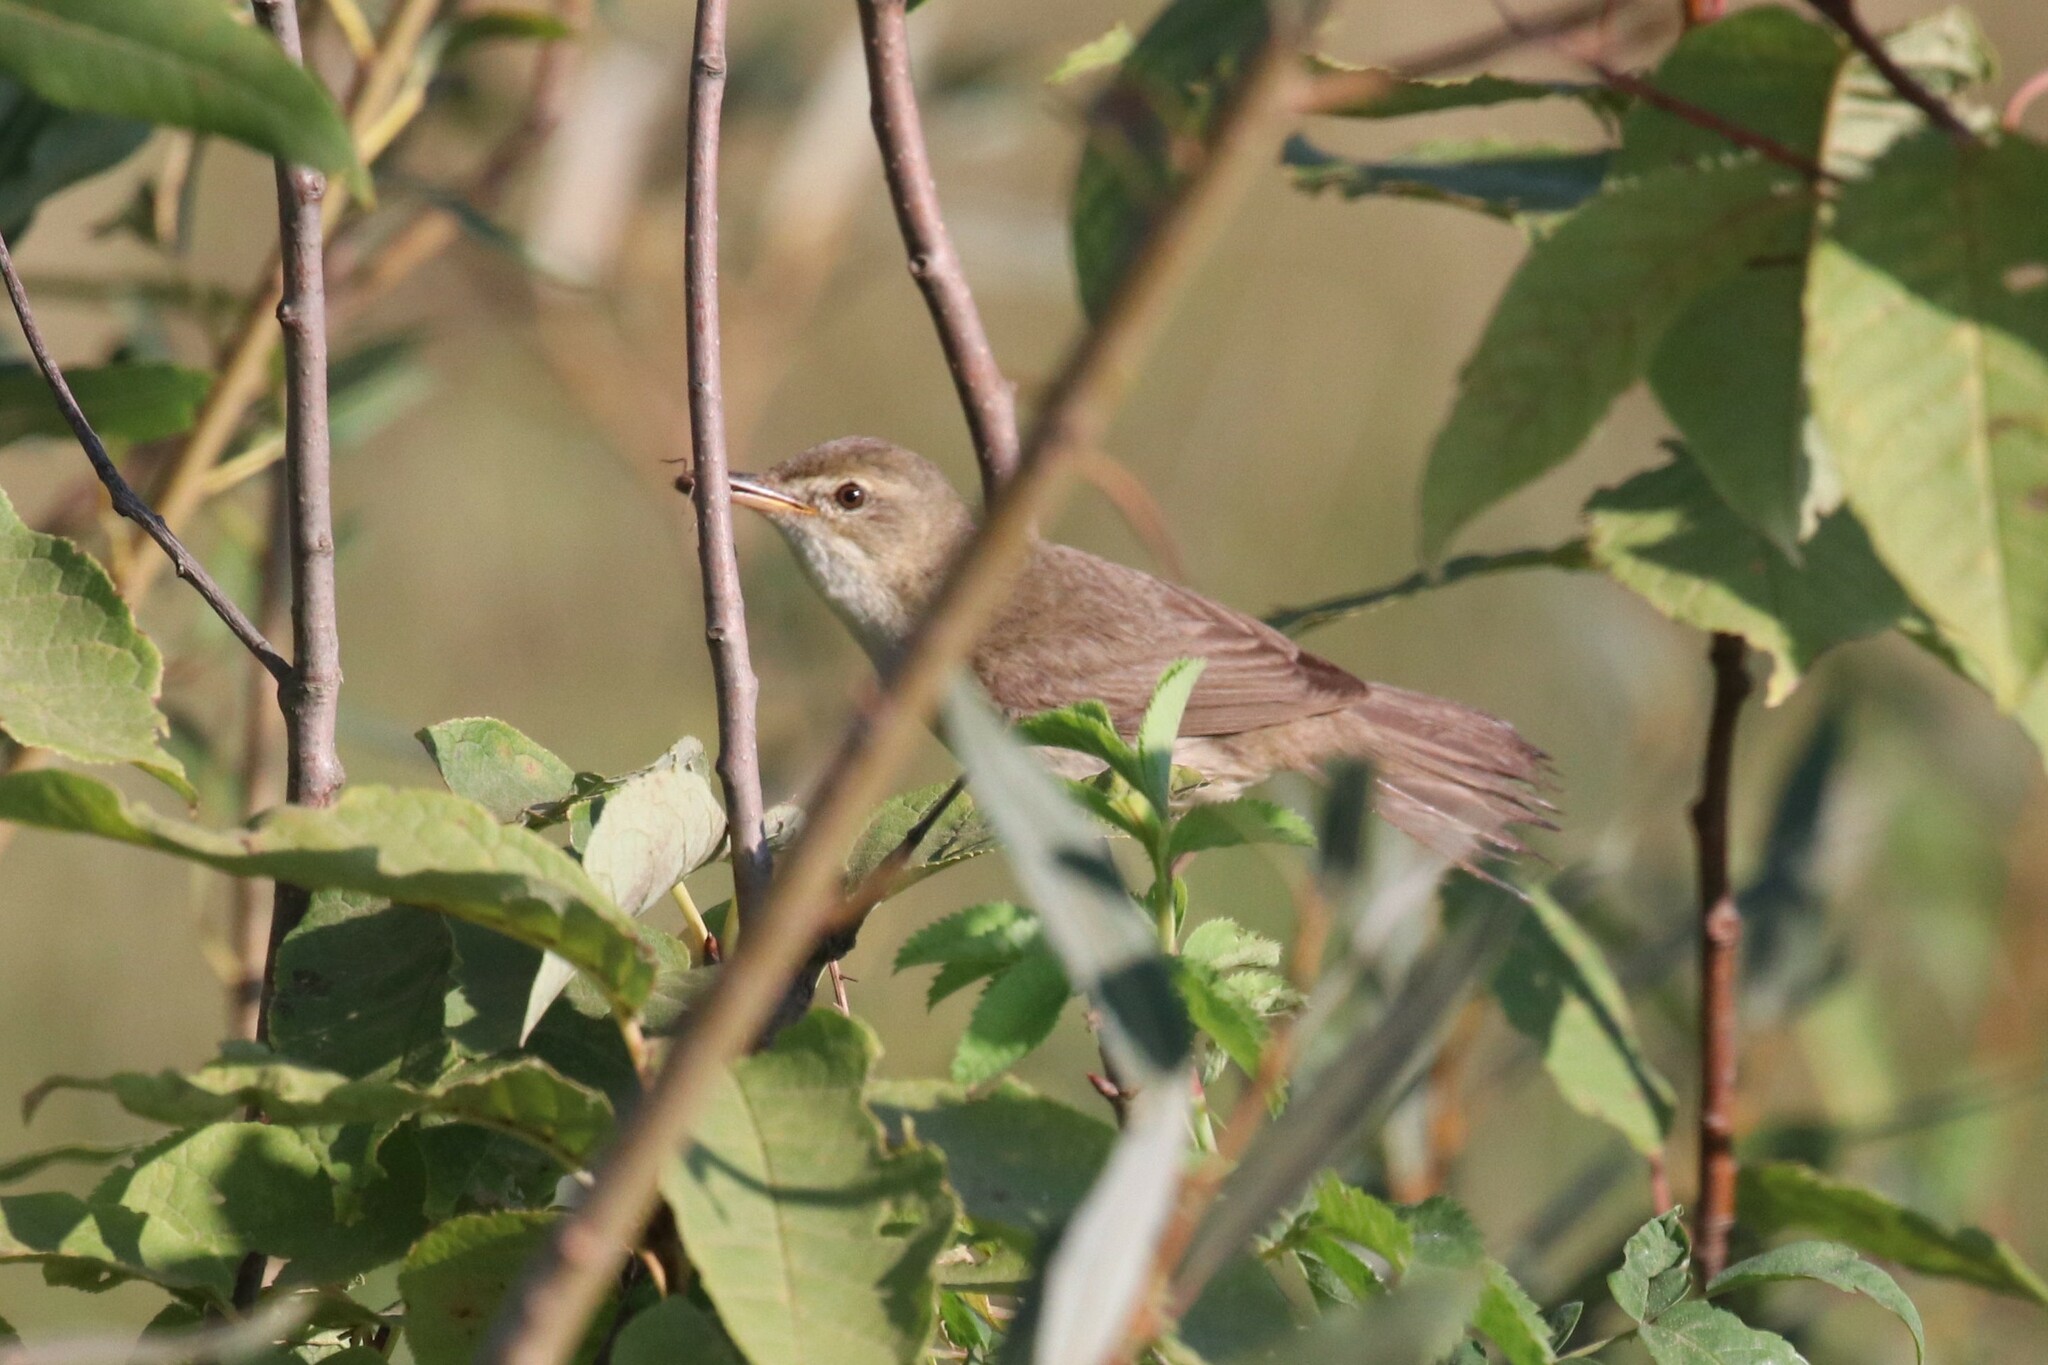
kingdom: Animalia
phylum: Chordata
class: Aves
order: Passeriformes
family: Acrocephalidae
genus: Acrocephalus
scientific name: Acrocephalus dumetorum
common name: Blyth's reed warbler
